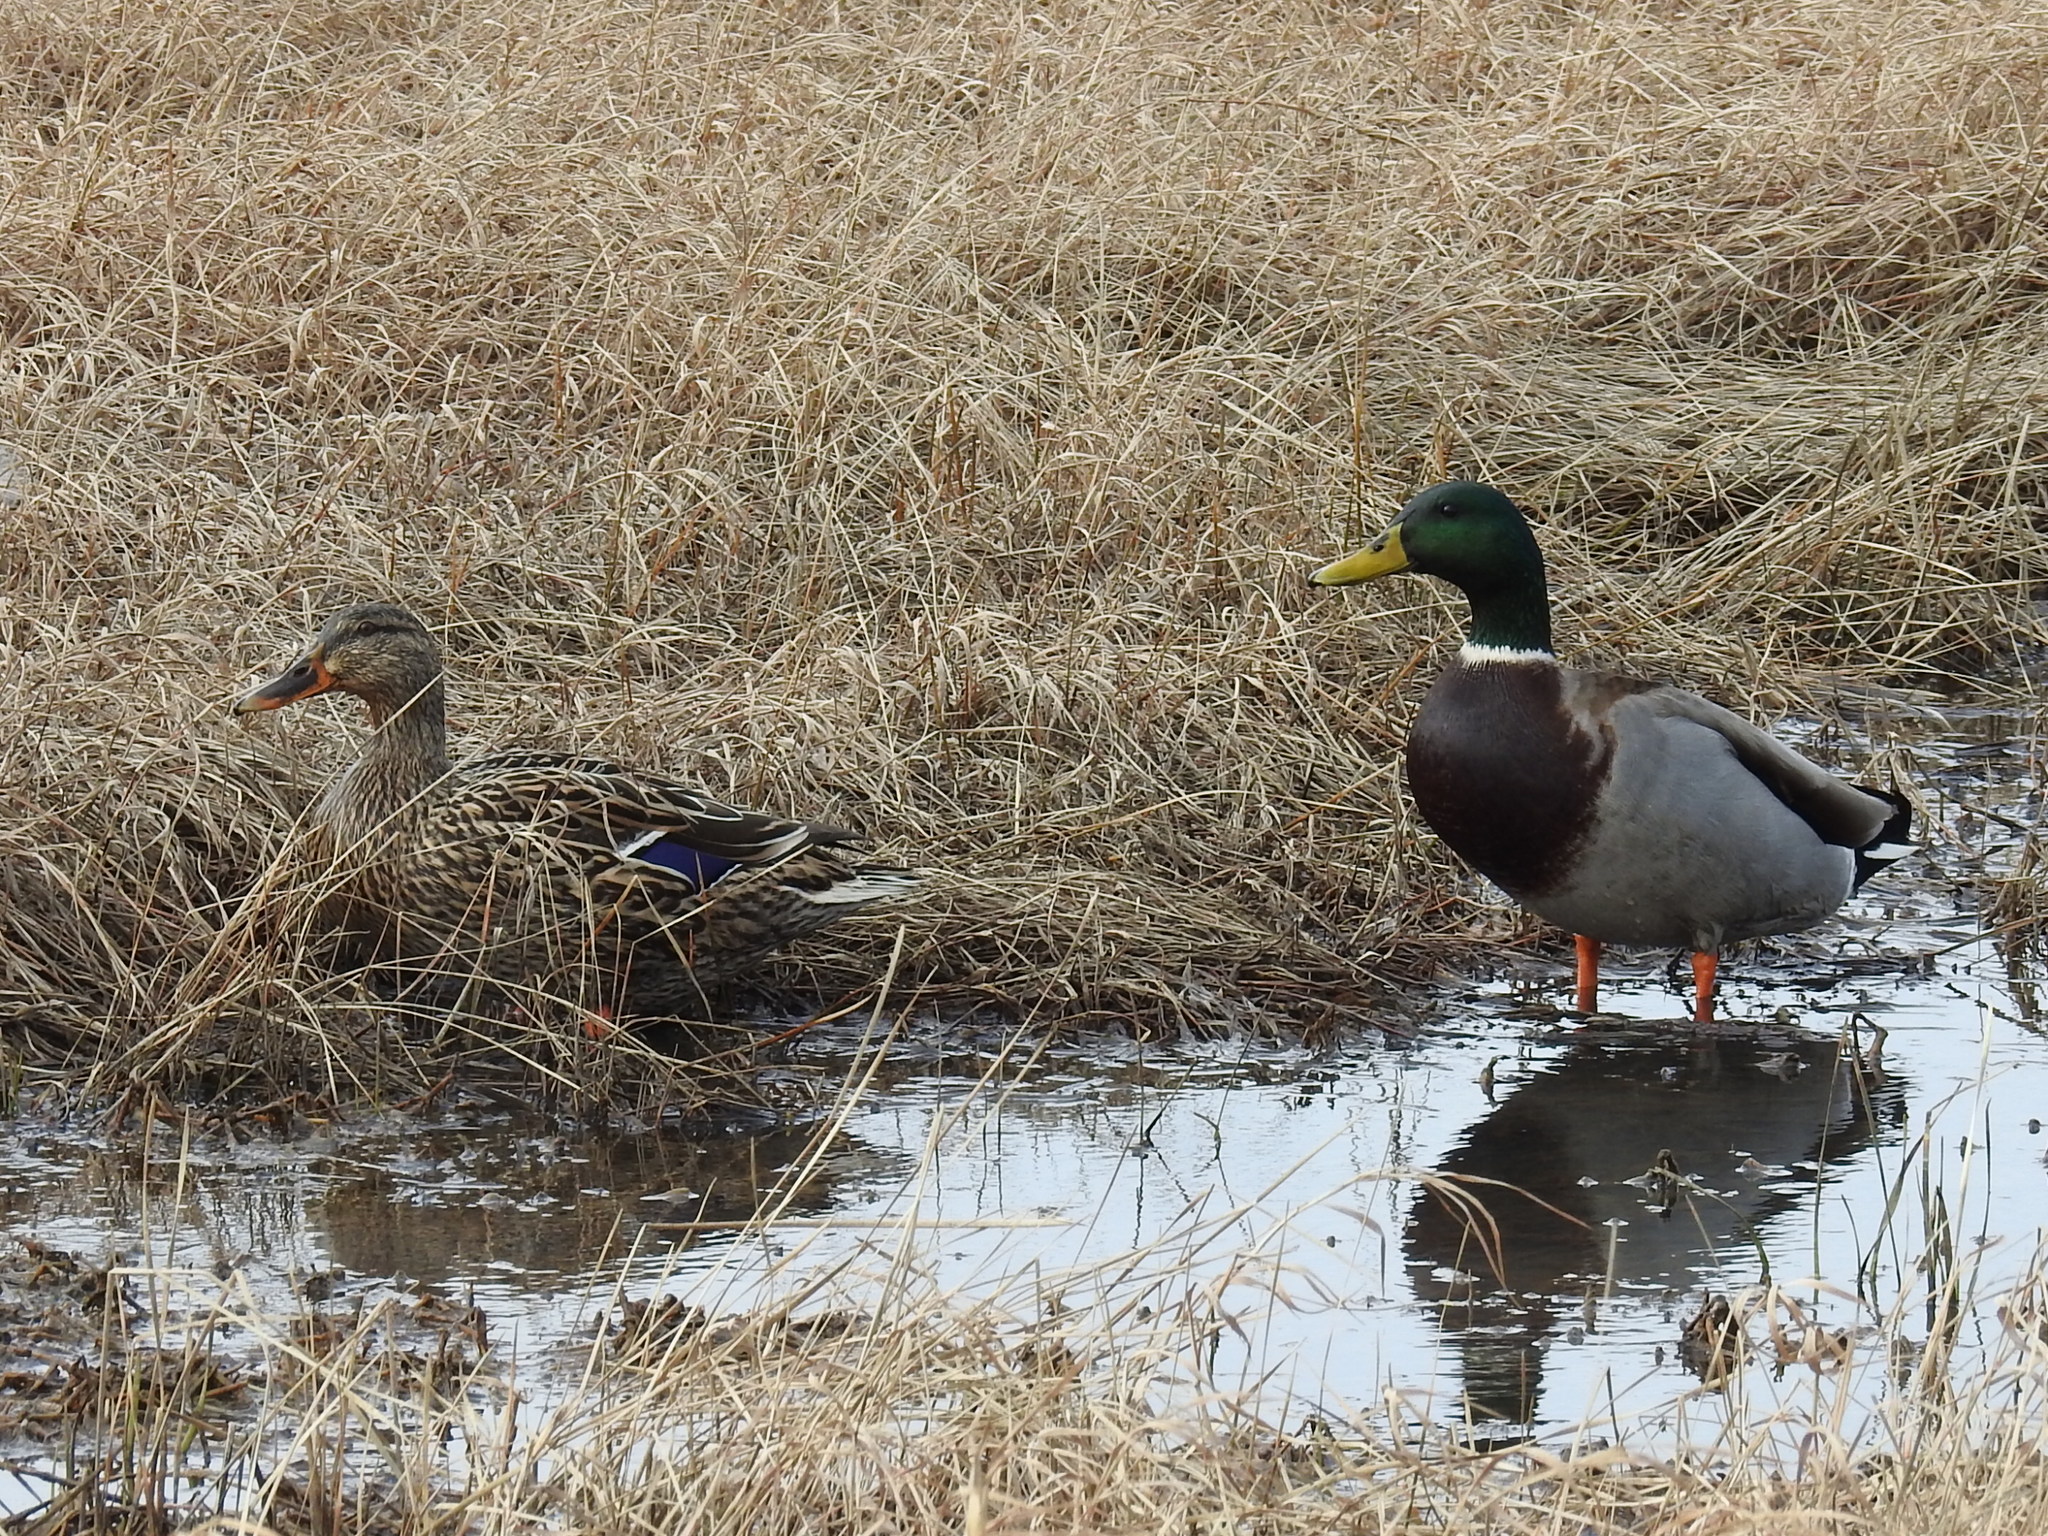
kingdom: Animalia
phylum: Chordata
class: Aves
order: Anseriformes
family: Anatidae
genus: Anas
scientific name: Anas platyrhynchos
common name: Mallard
